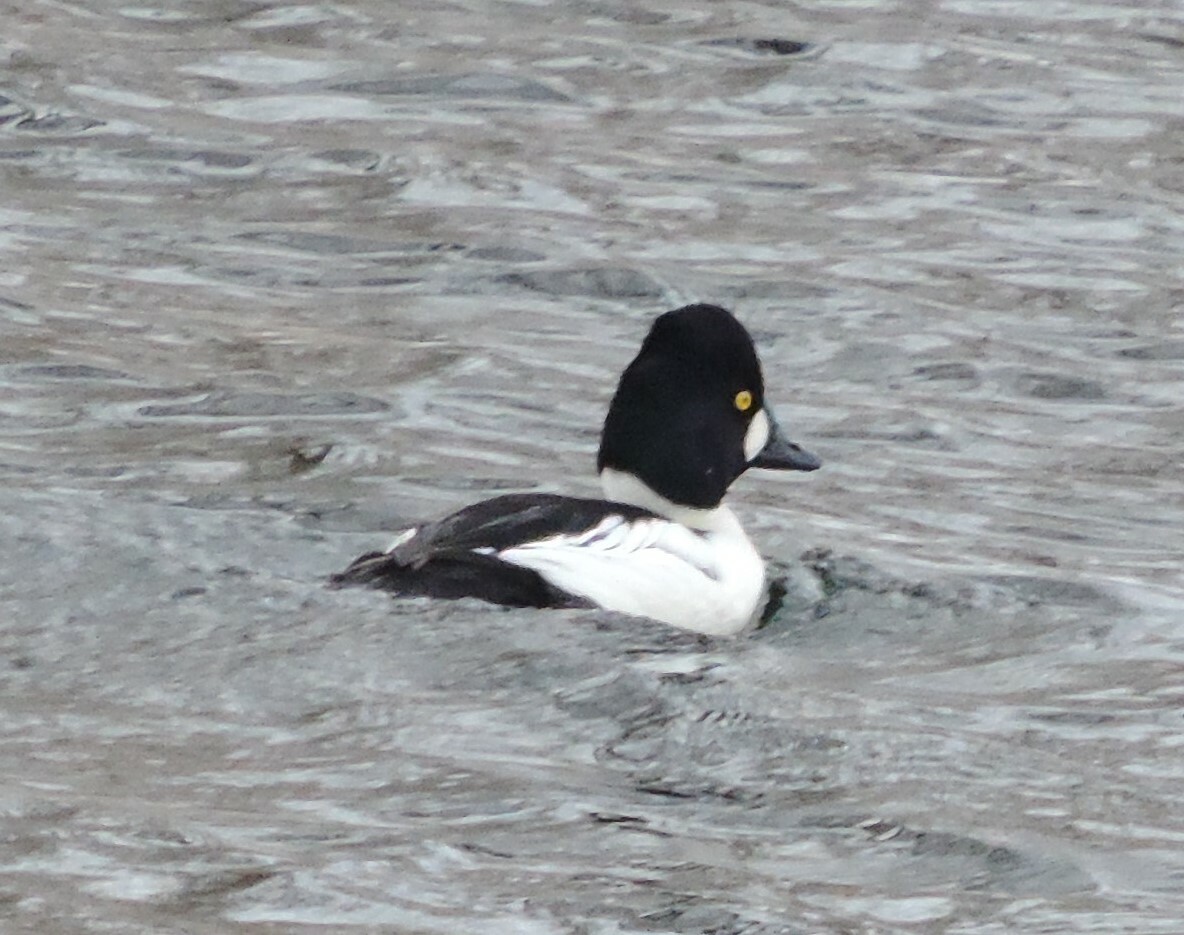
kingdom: Animalia
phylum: Chordata
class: Aves
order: Anseriformes
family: Anatidae
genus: Bucephala
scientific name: Bucephala clangula
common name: Common goldeneye
